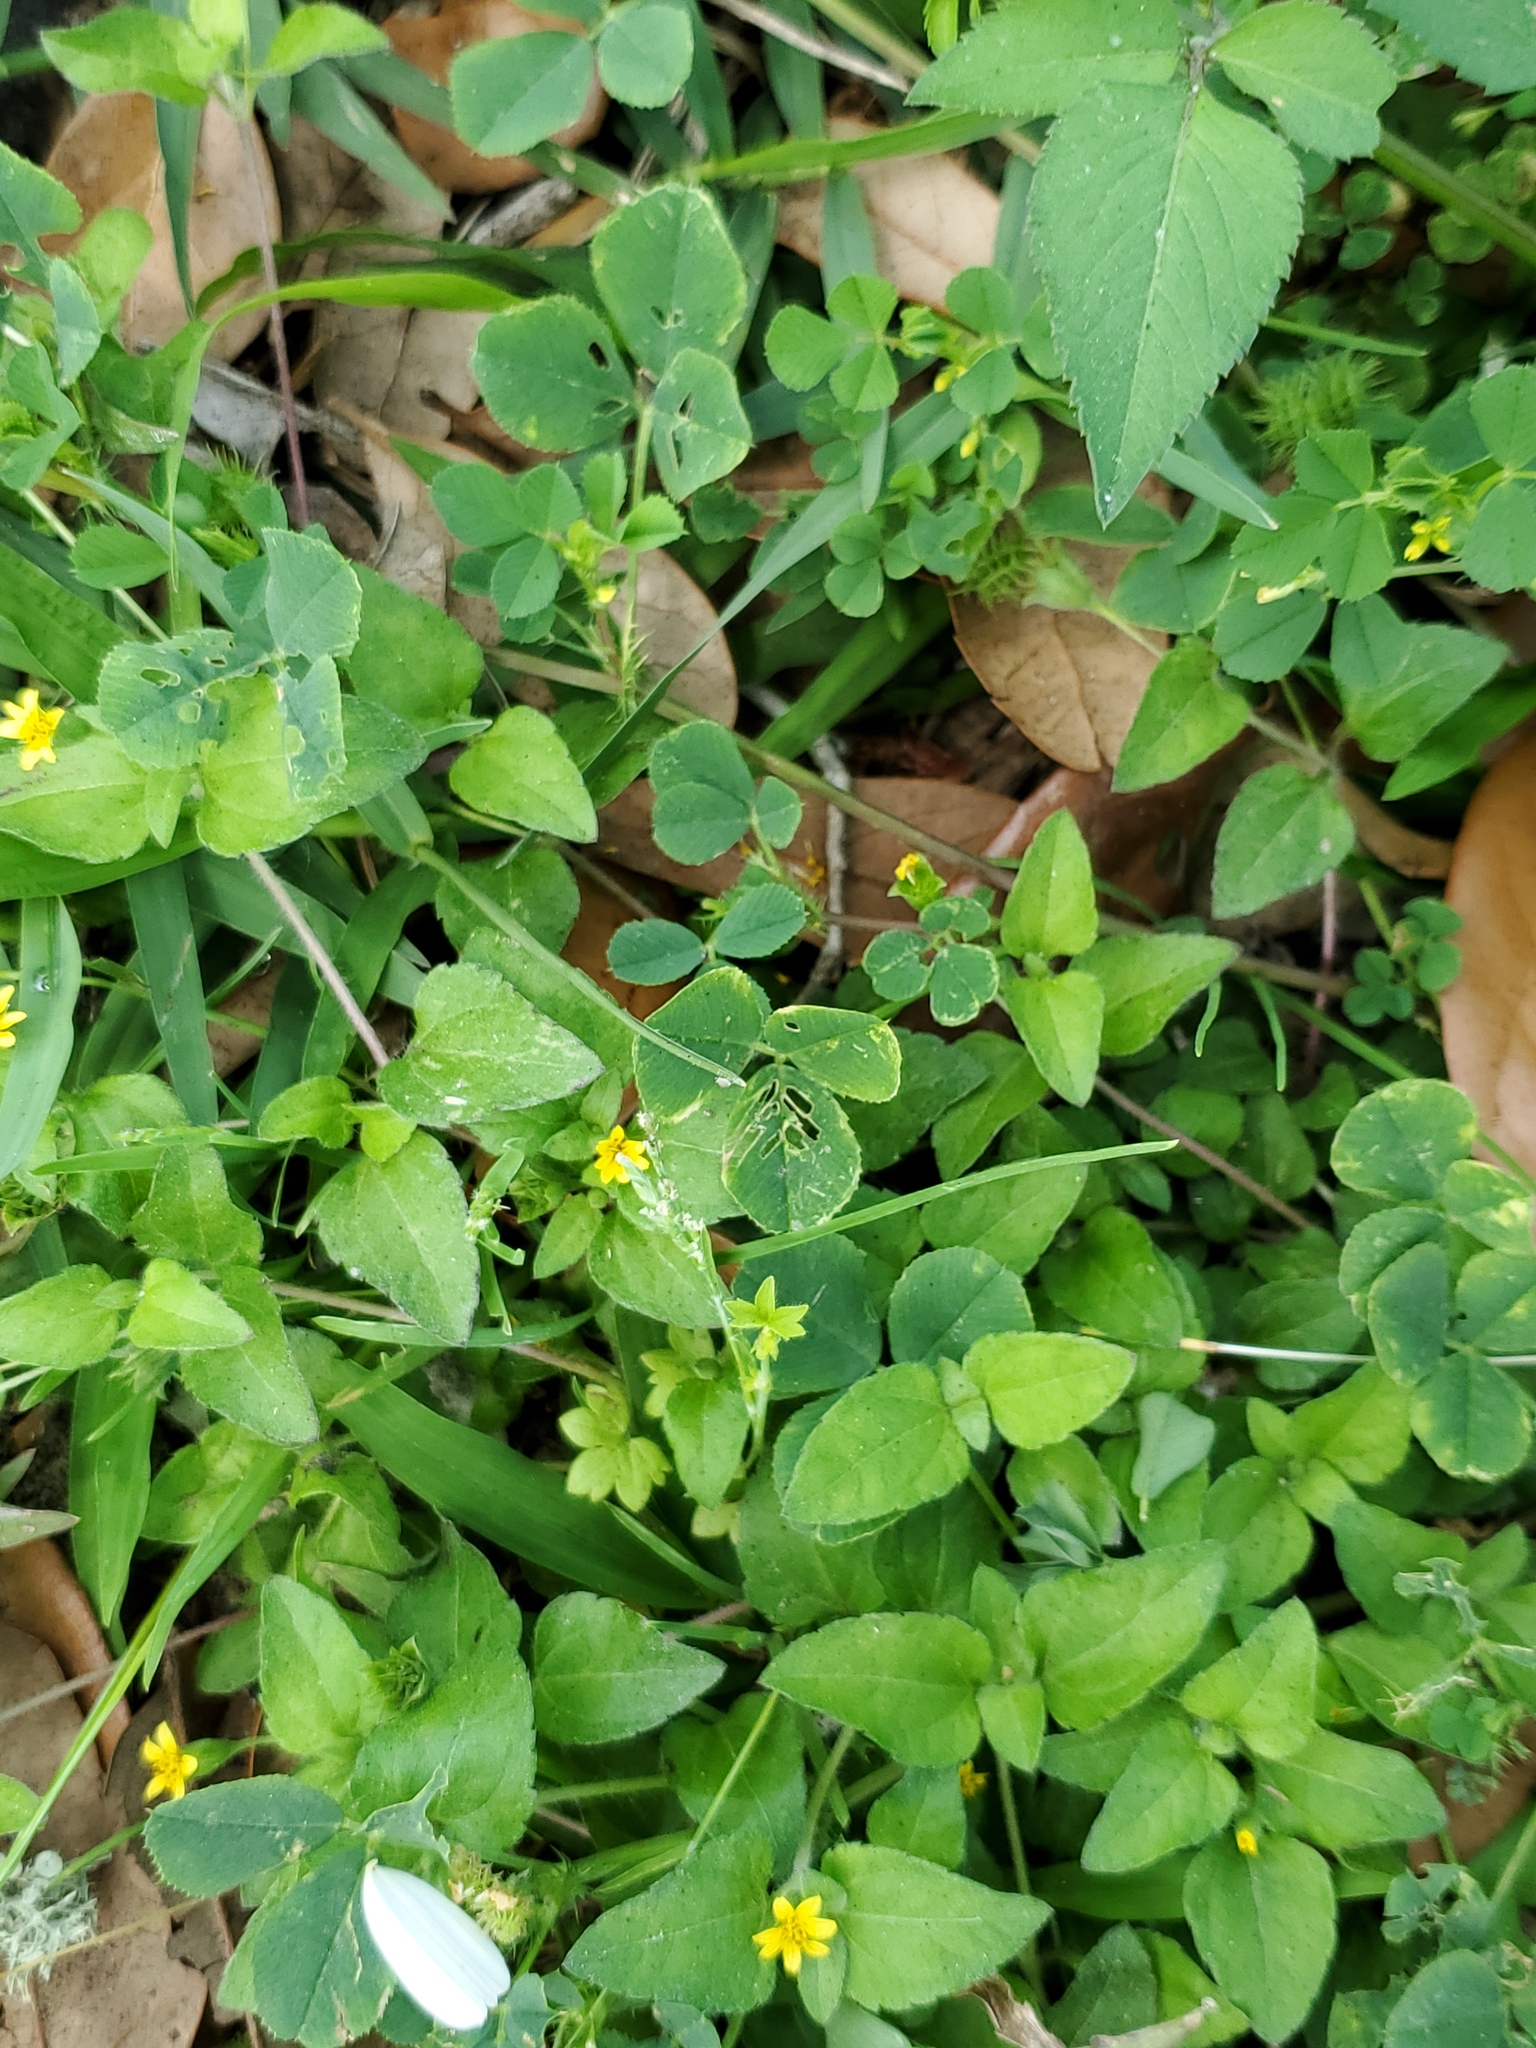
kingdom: Plantae
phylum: Tracheophyta
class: Magnoliopsida
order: Asterales
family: Asteraceae
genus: Calyptocarpus
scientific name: Calyptocarpus vialis
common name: Straggler daisy
